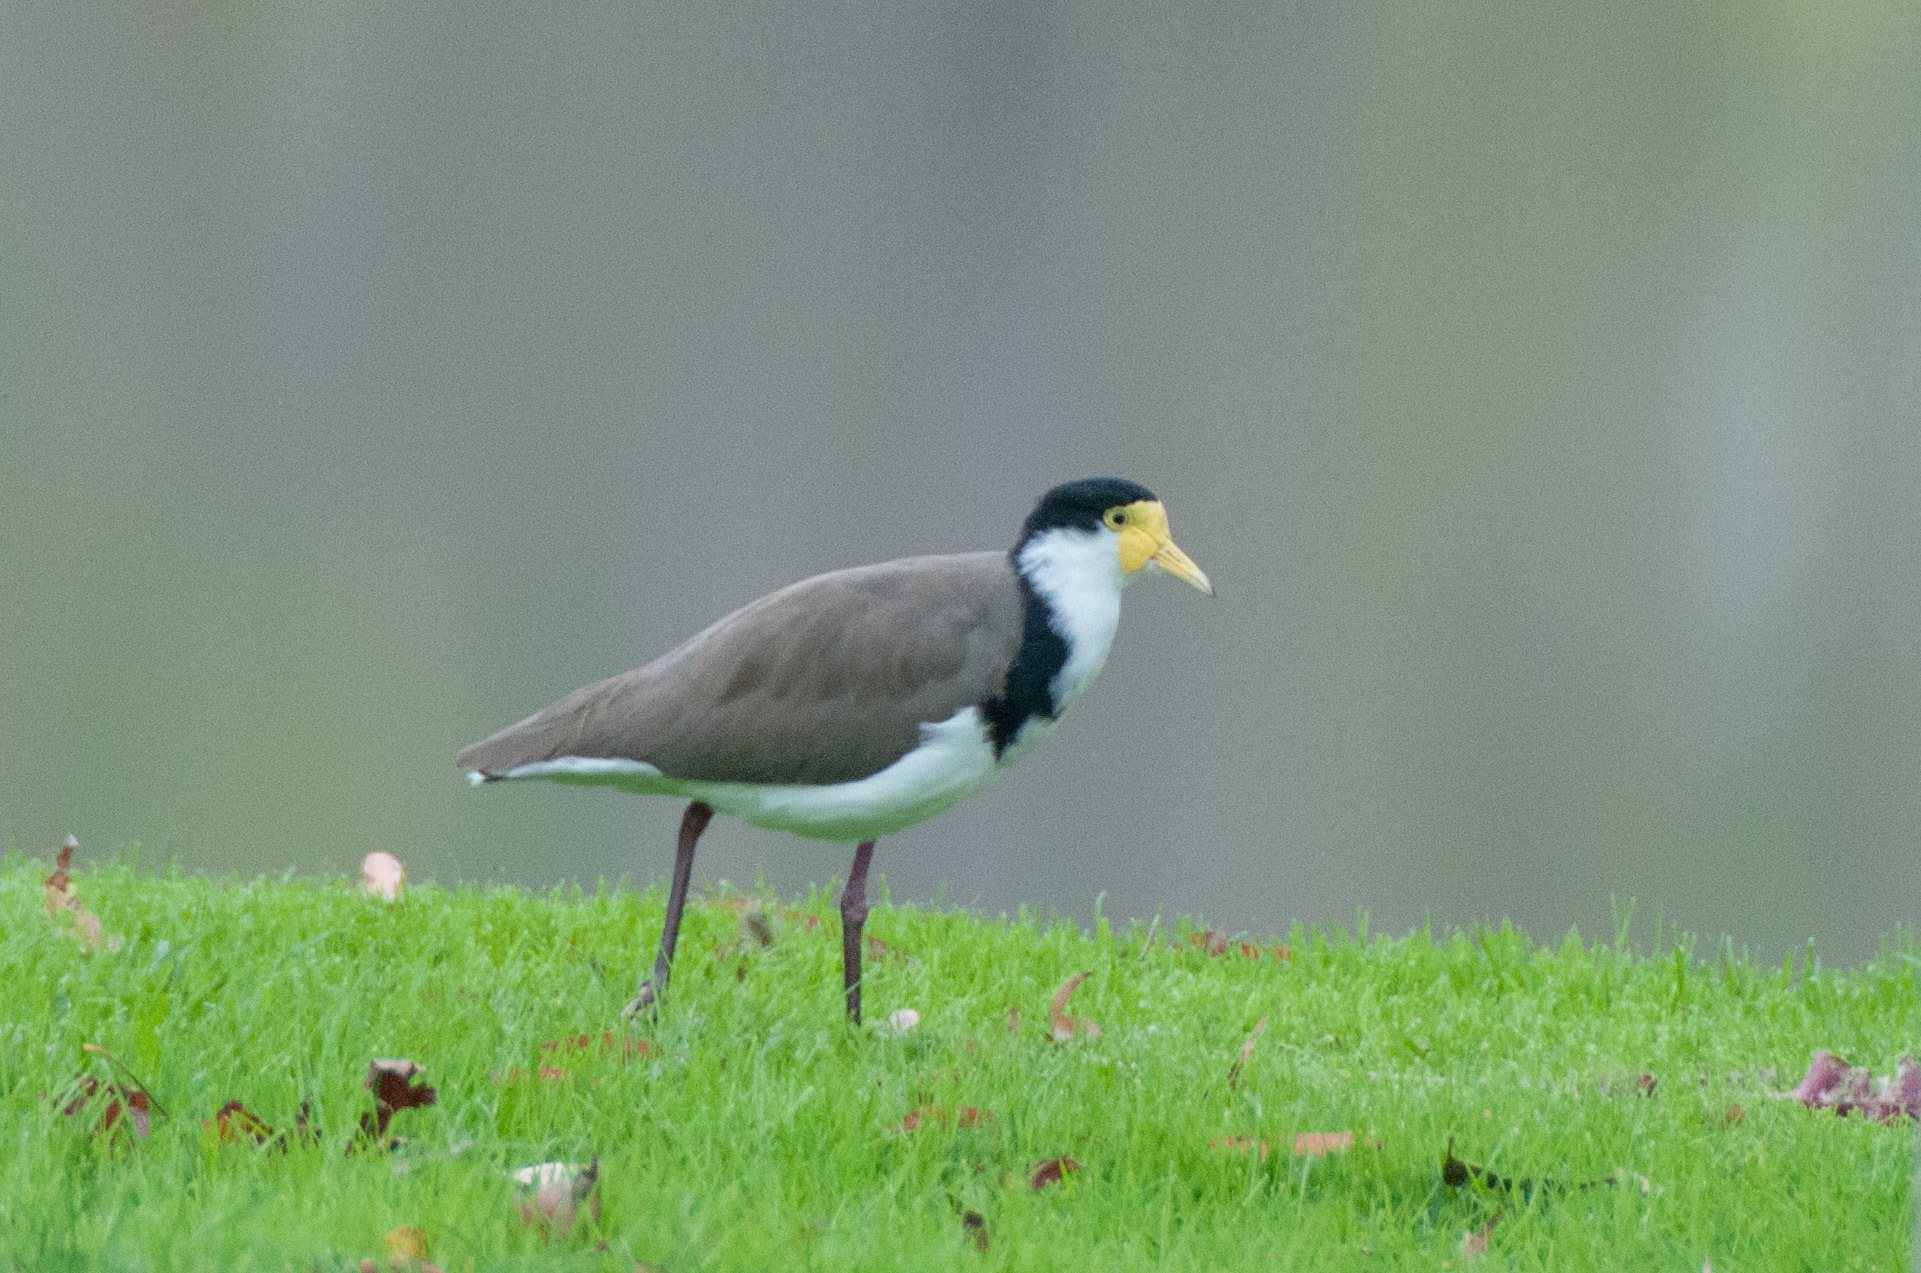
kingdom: Animalia
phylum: Chordata
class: Aves
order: Charadriiformes
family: Charadriidae
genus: Vanellus
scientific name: Vanellus miles
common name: Masked lapwing
